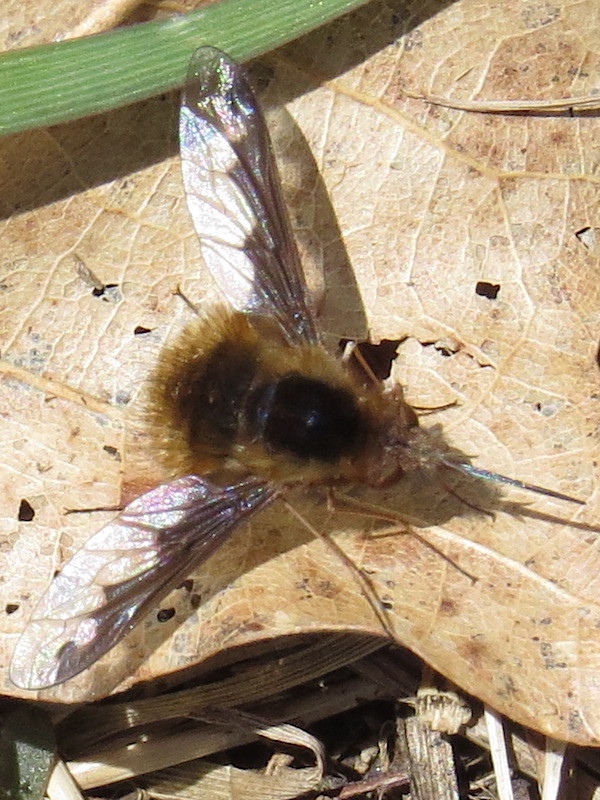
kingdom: Animalia
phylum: Arthropoda
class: Insecta
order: Diptera
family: Bombyliidae
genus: Bombylius
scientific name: Bombylius major
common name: Bee fly
